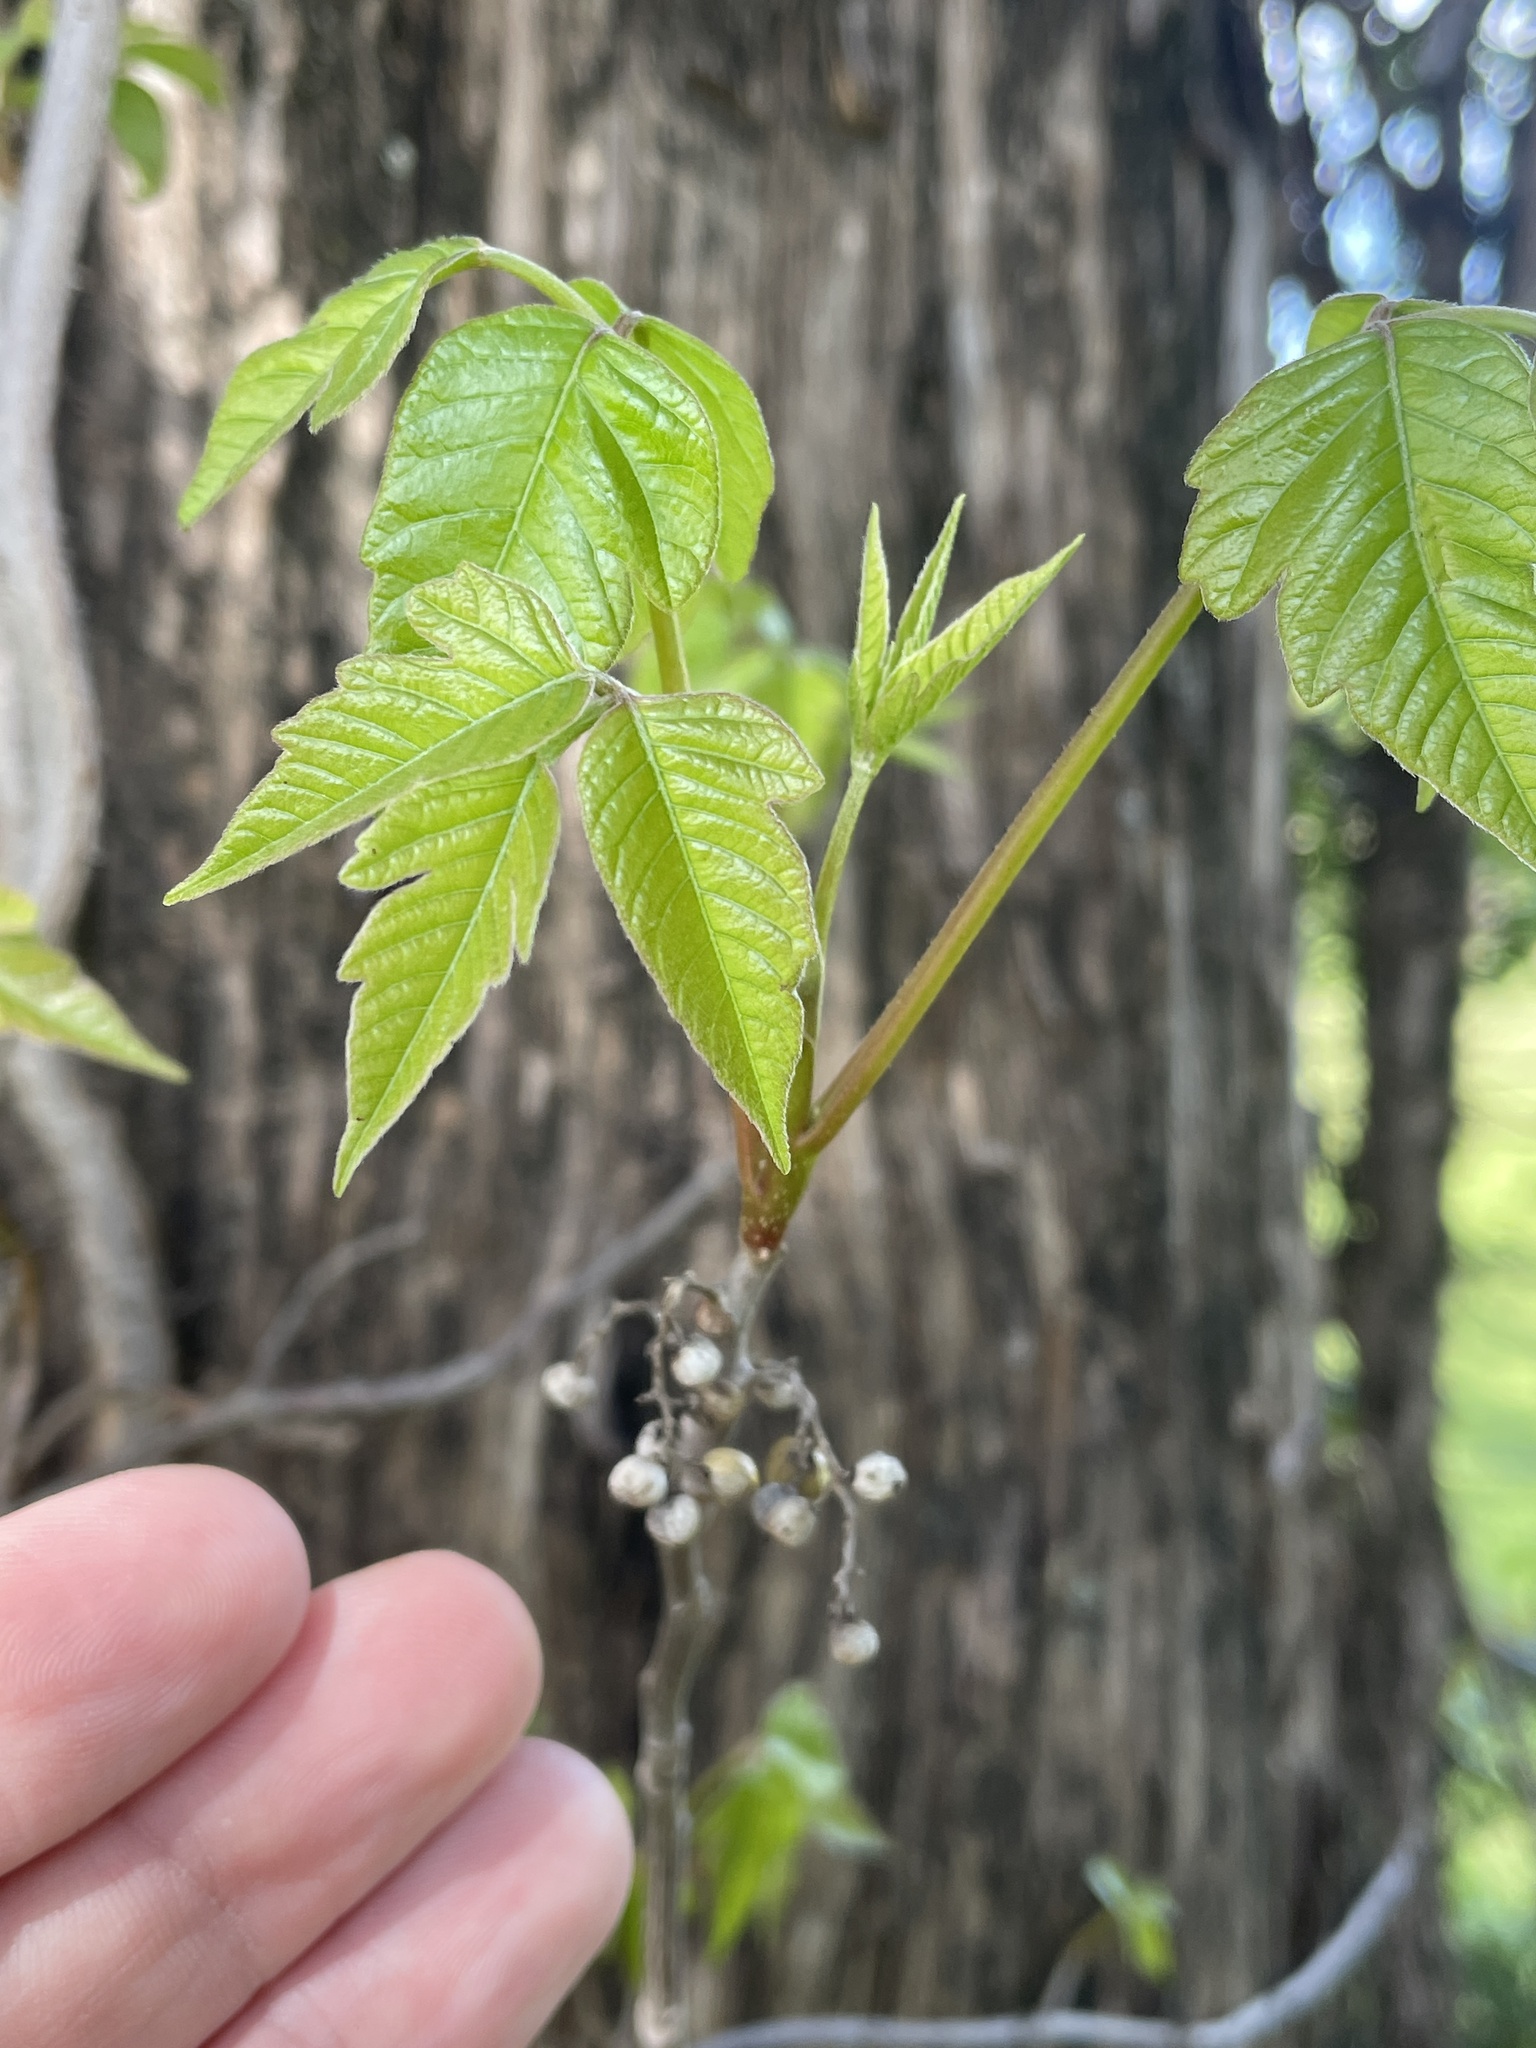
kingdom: Plantae
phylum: Tracheophyta
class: Magnoliopsida
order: Sapindales
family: Anacardiaceae
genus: Toxicodendron
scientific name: Toxicodendron radicans
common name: Poison ivy
